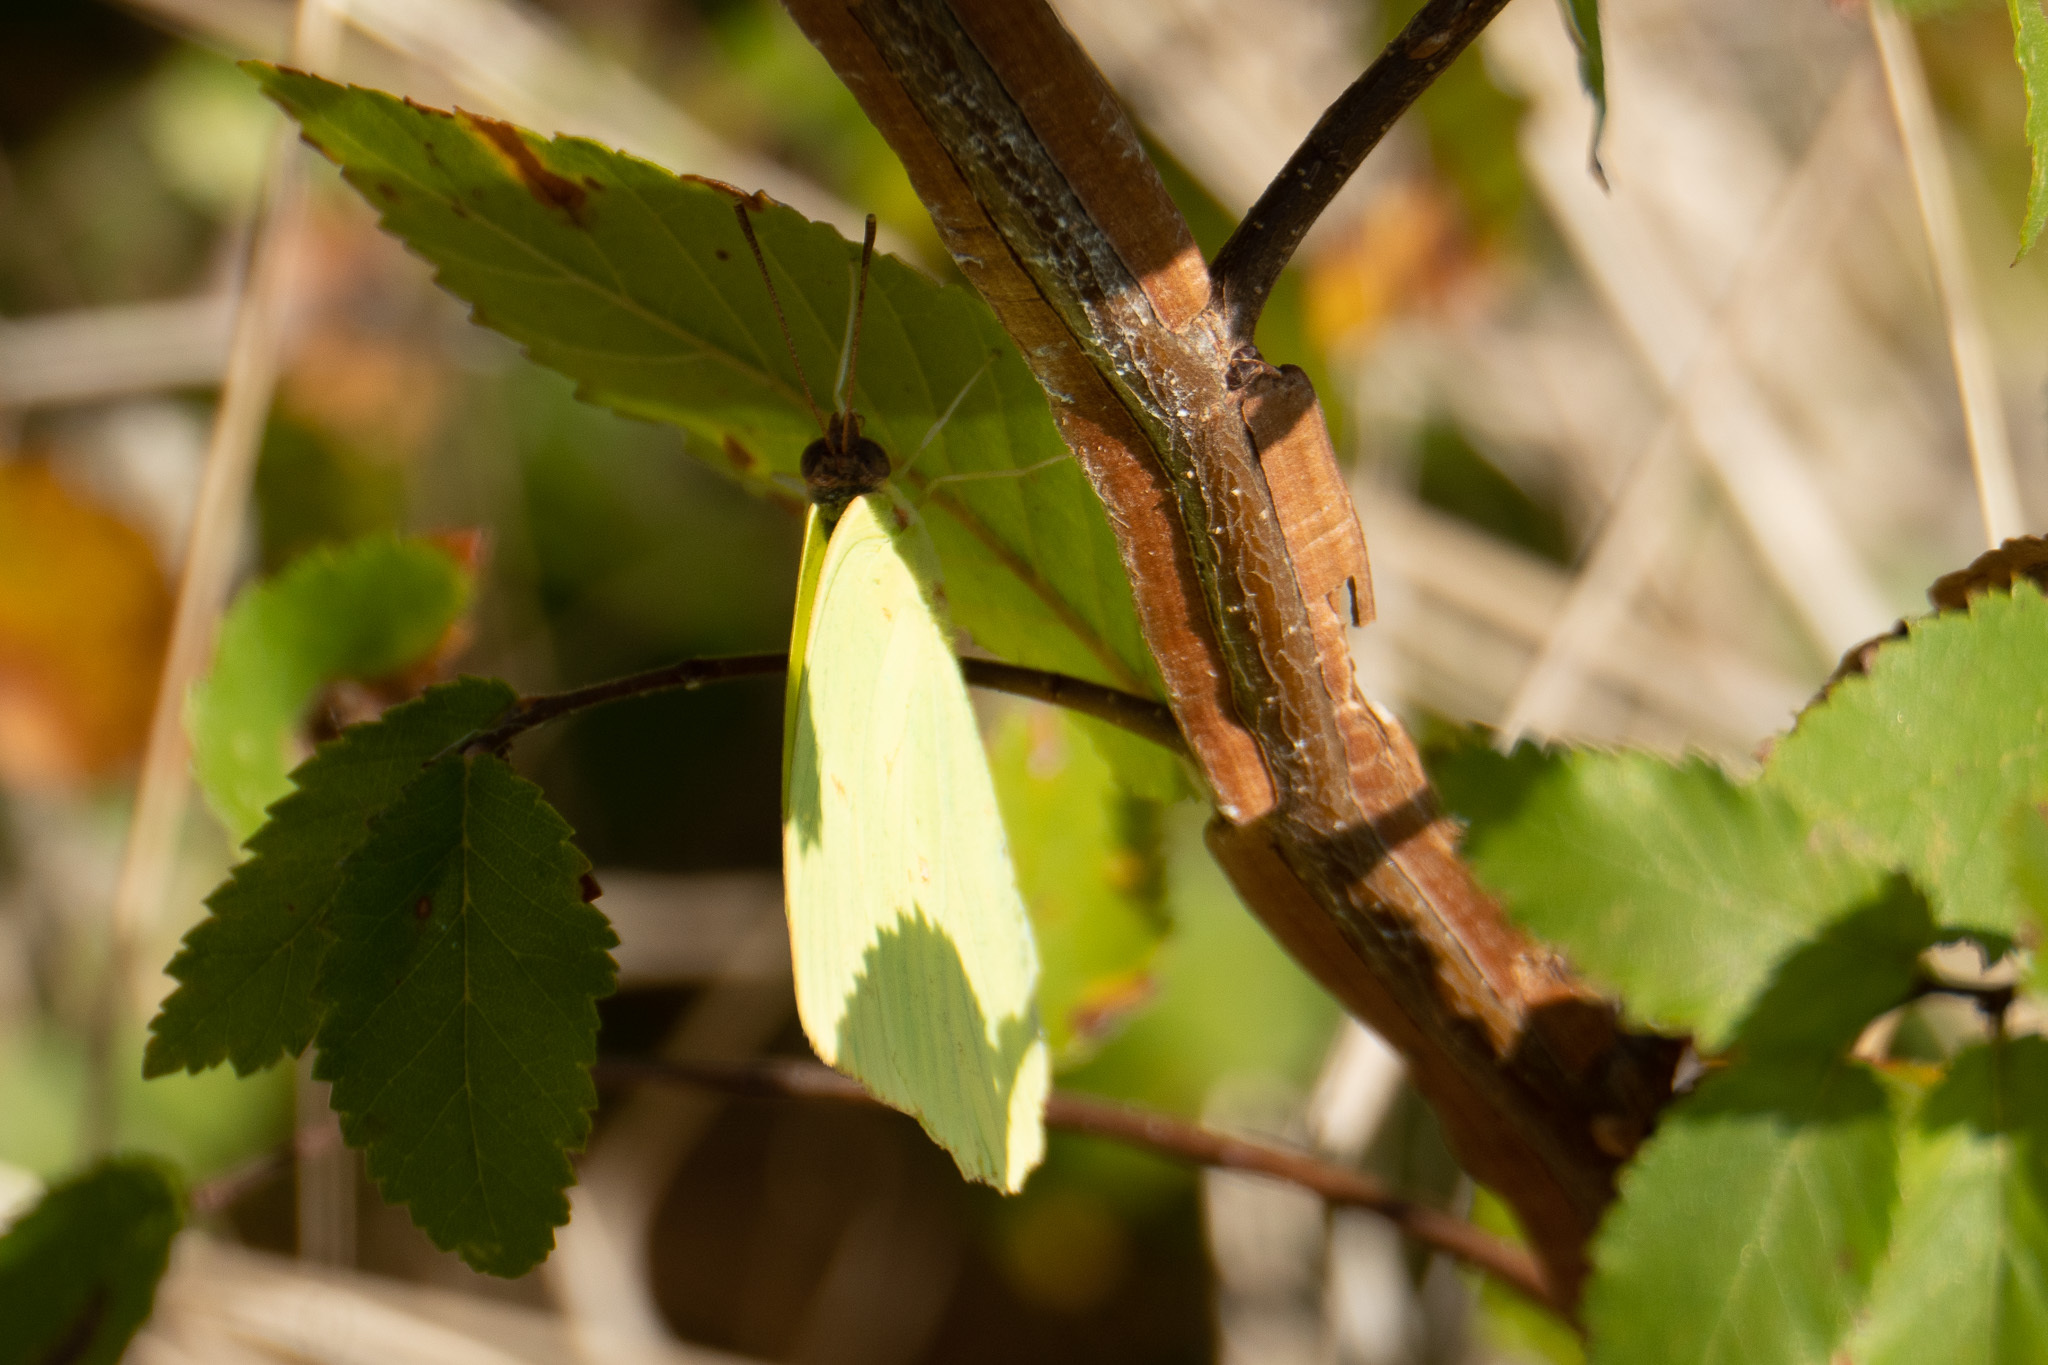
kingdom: Animalia
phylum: Arthropoda
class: Insecta
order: Lepidoptera
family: Pieridae
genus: Phoebis
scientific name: Phoebis sennae
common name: Cloudless sulphur
